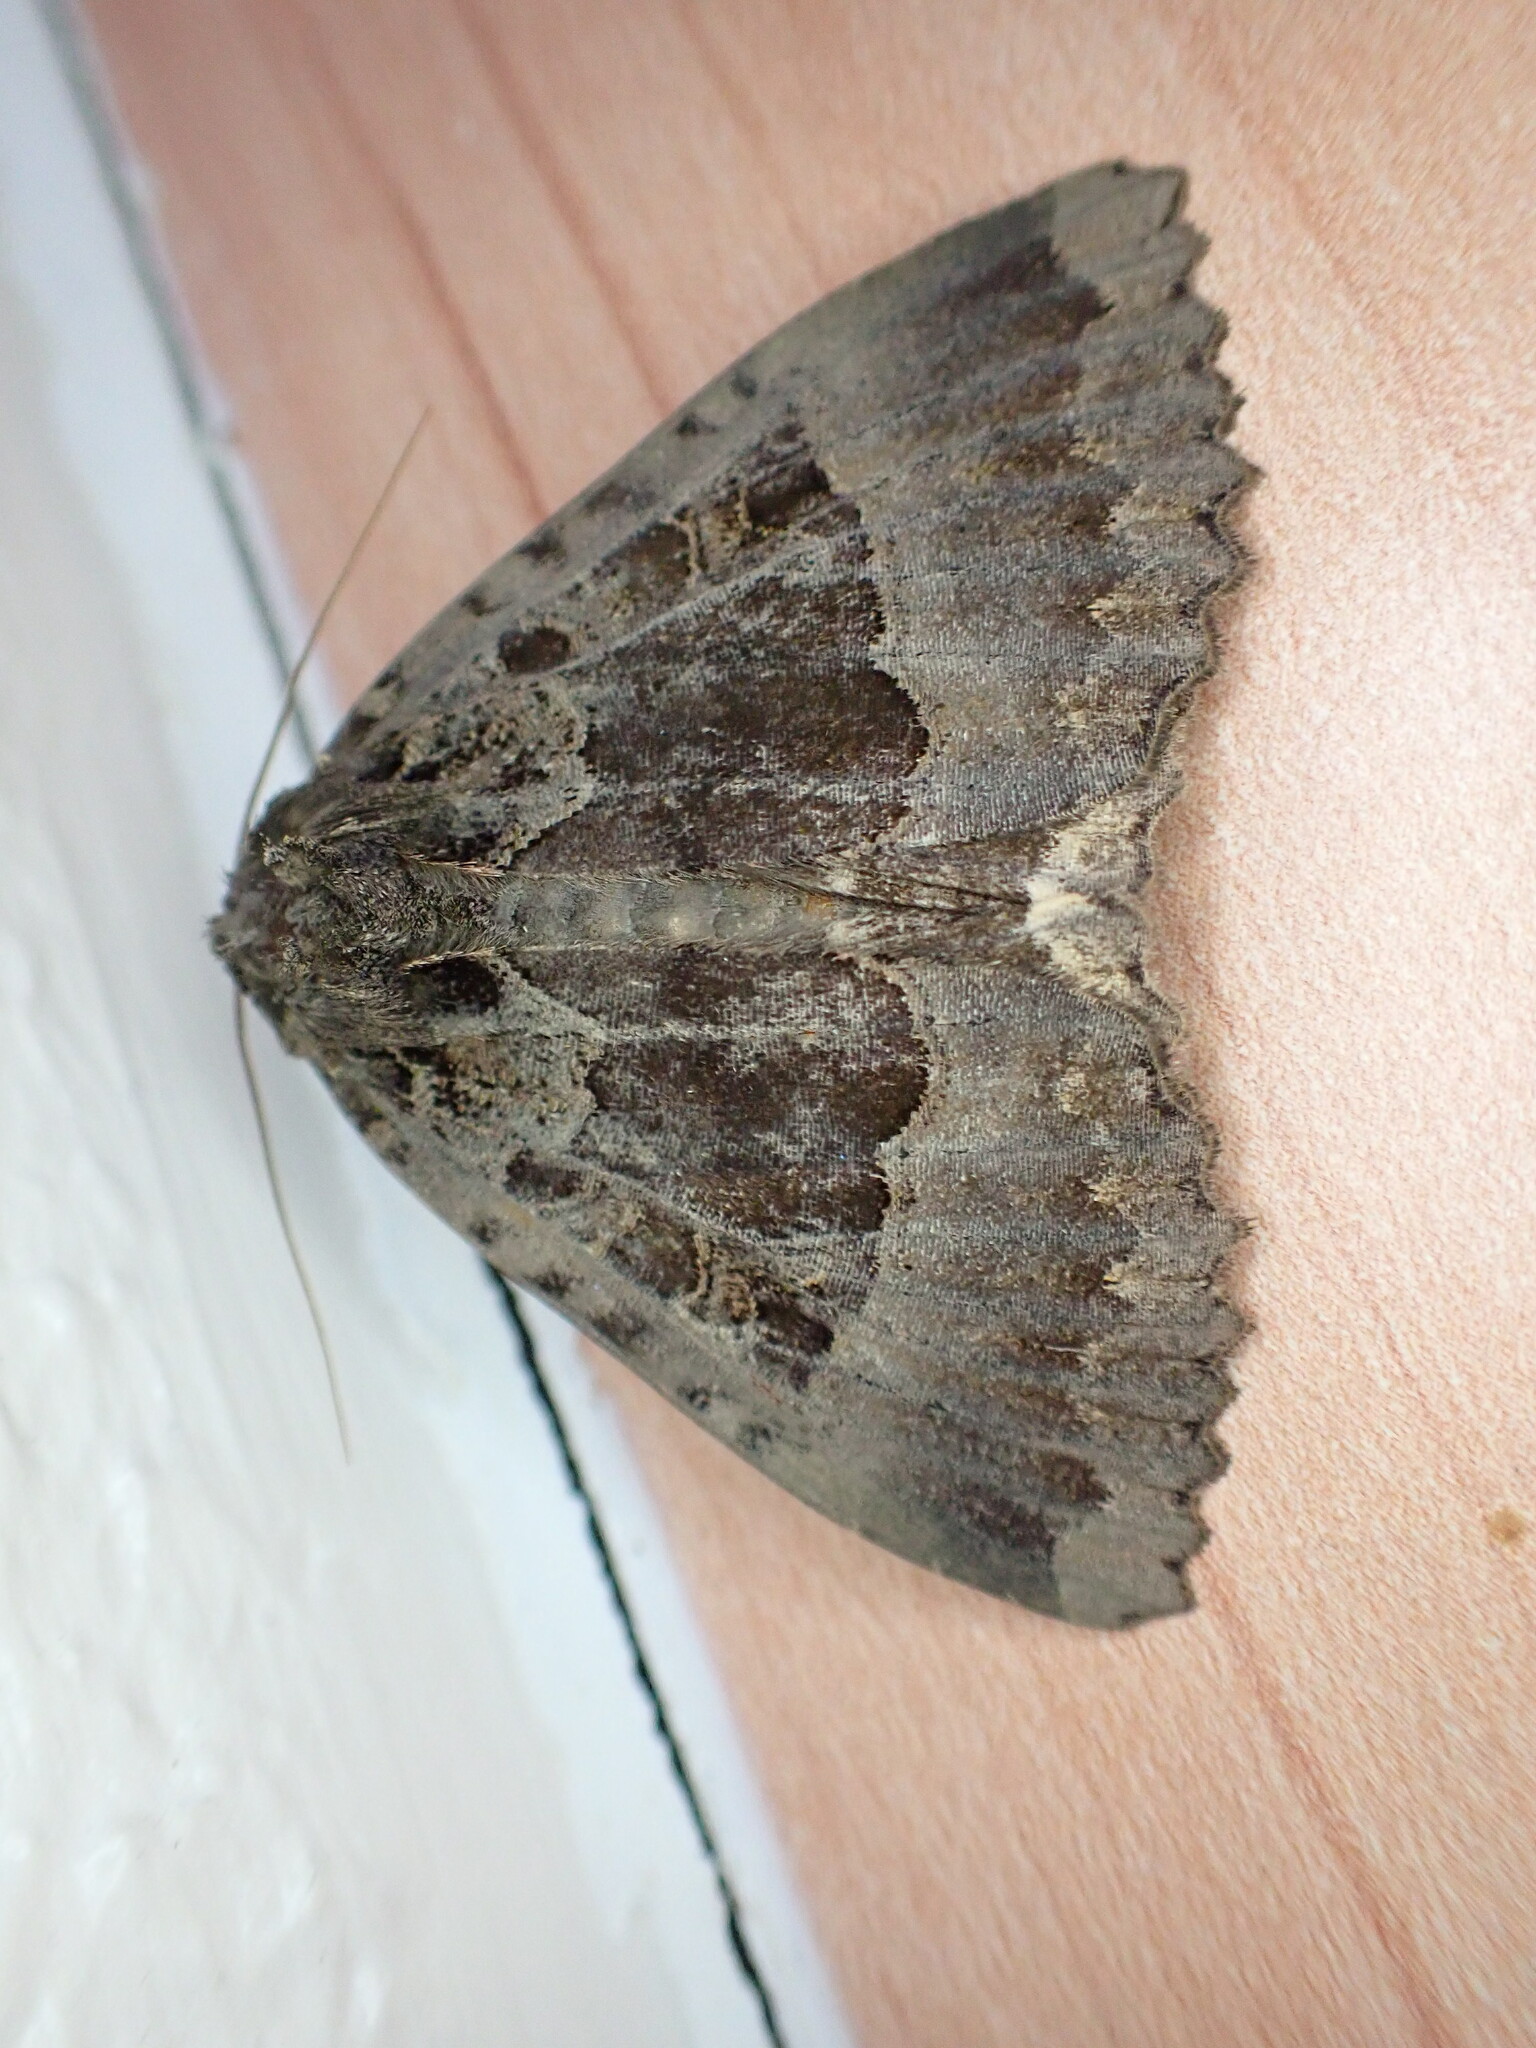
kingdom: Animalia
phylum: Arthropoda
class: Insecta
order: Lepidoptera
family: Noctuidae
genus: Mormo
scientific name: Mormo maura
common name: Old lady
